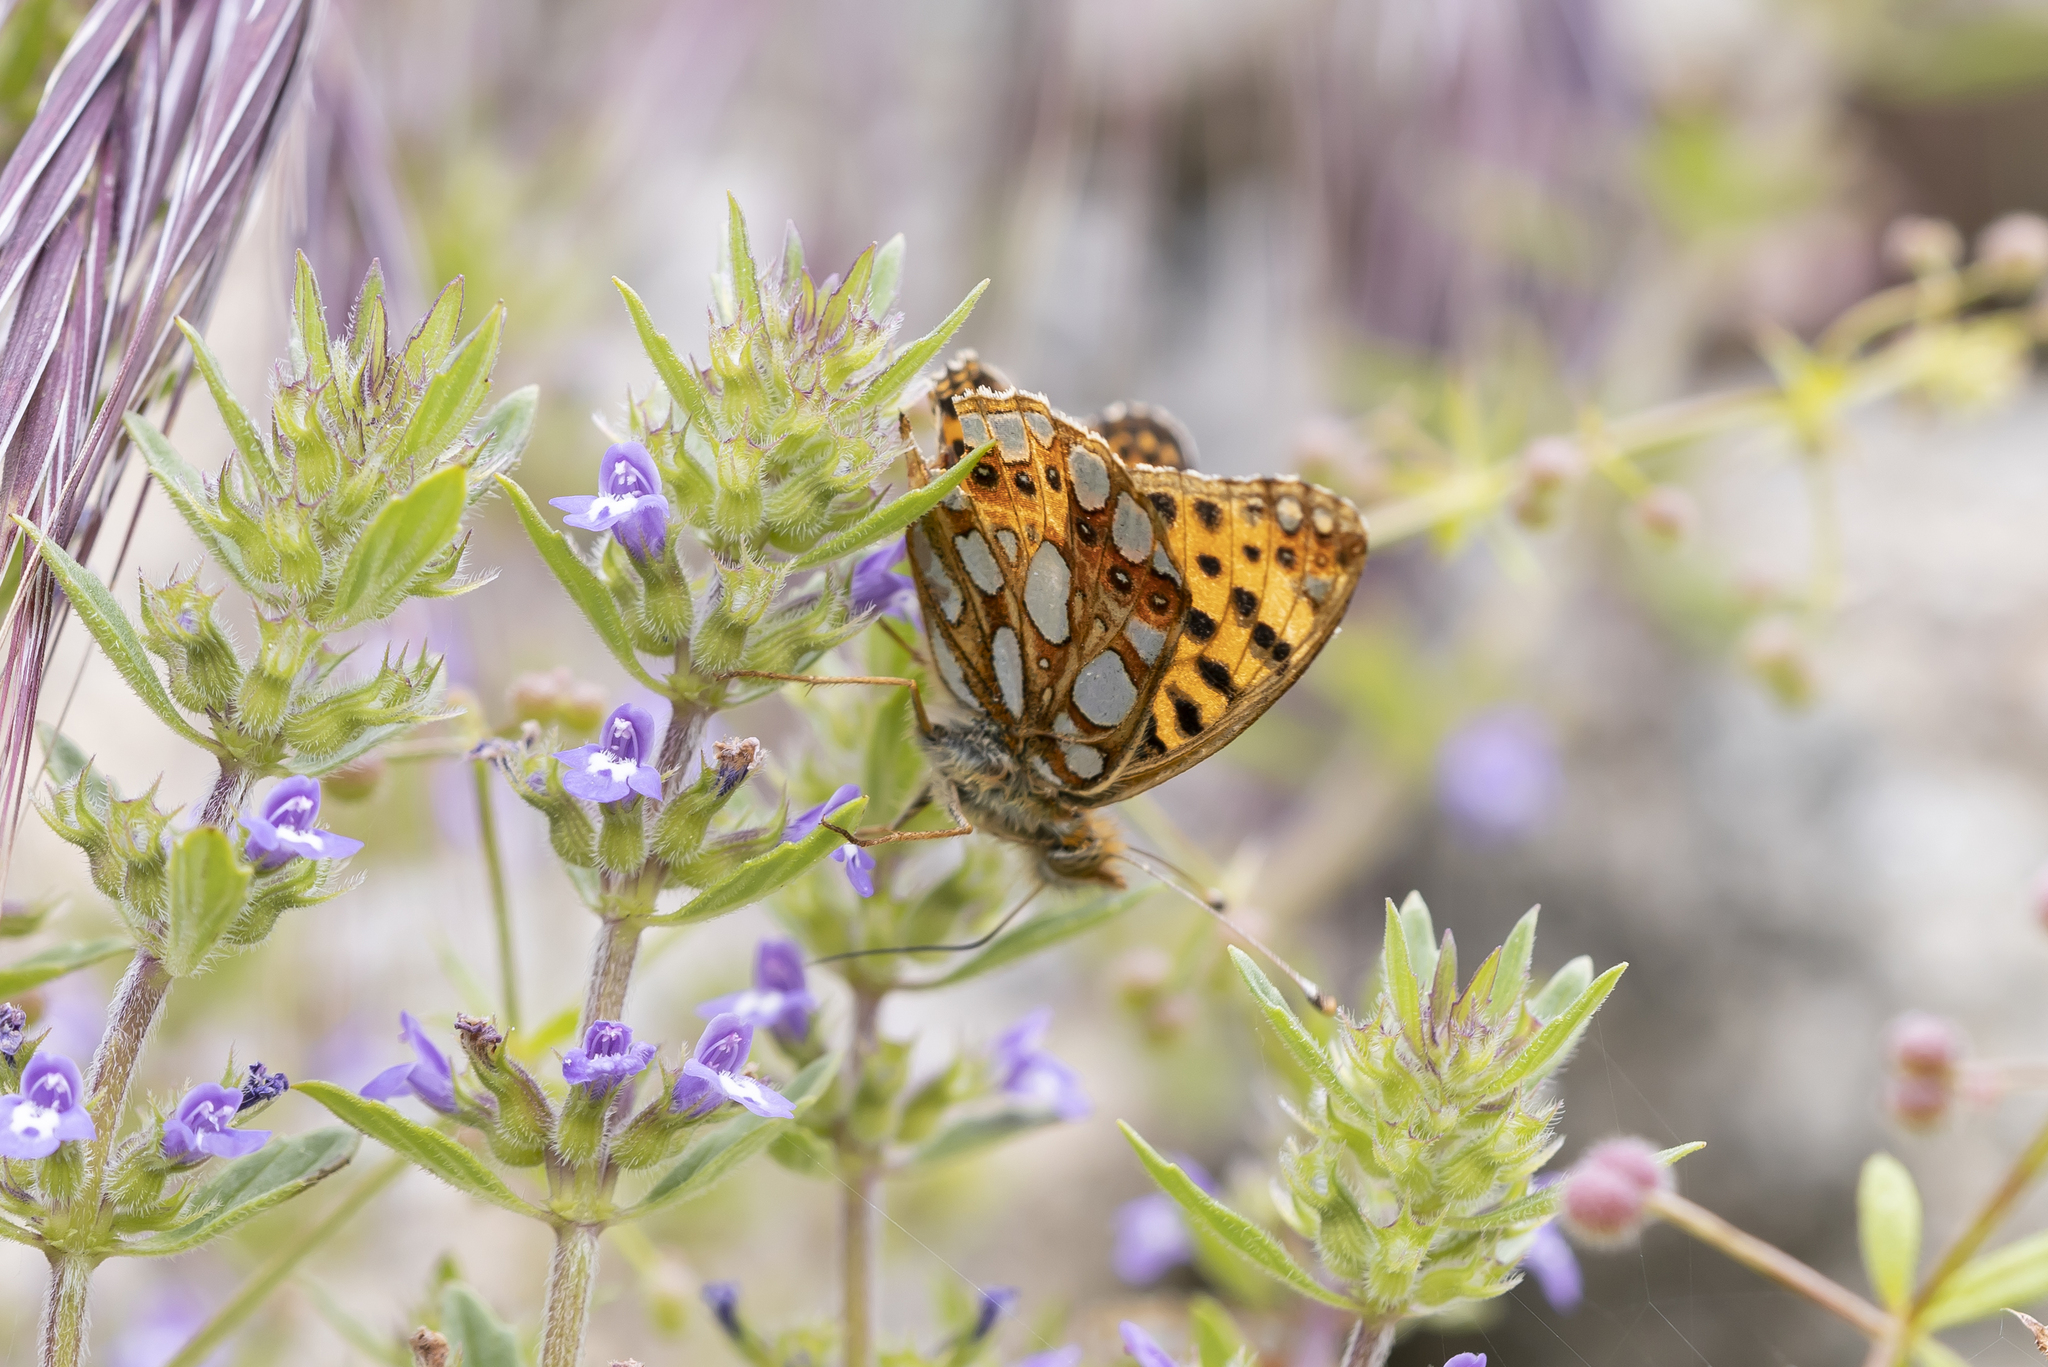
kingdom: Animalia
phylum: Arthropoda
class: Insecta
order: Lepidoptera
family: Nymphalidae
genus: Issoria
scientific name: Issoria lathonia
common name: Queen of spain fritillary
